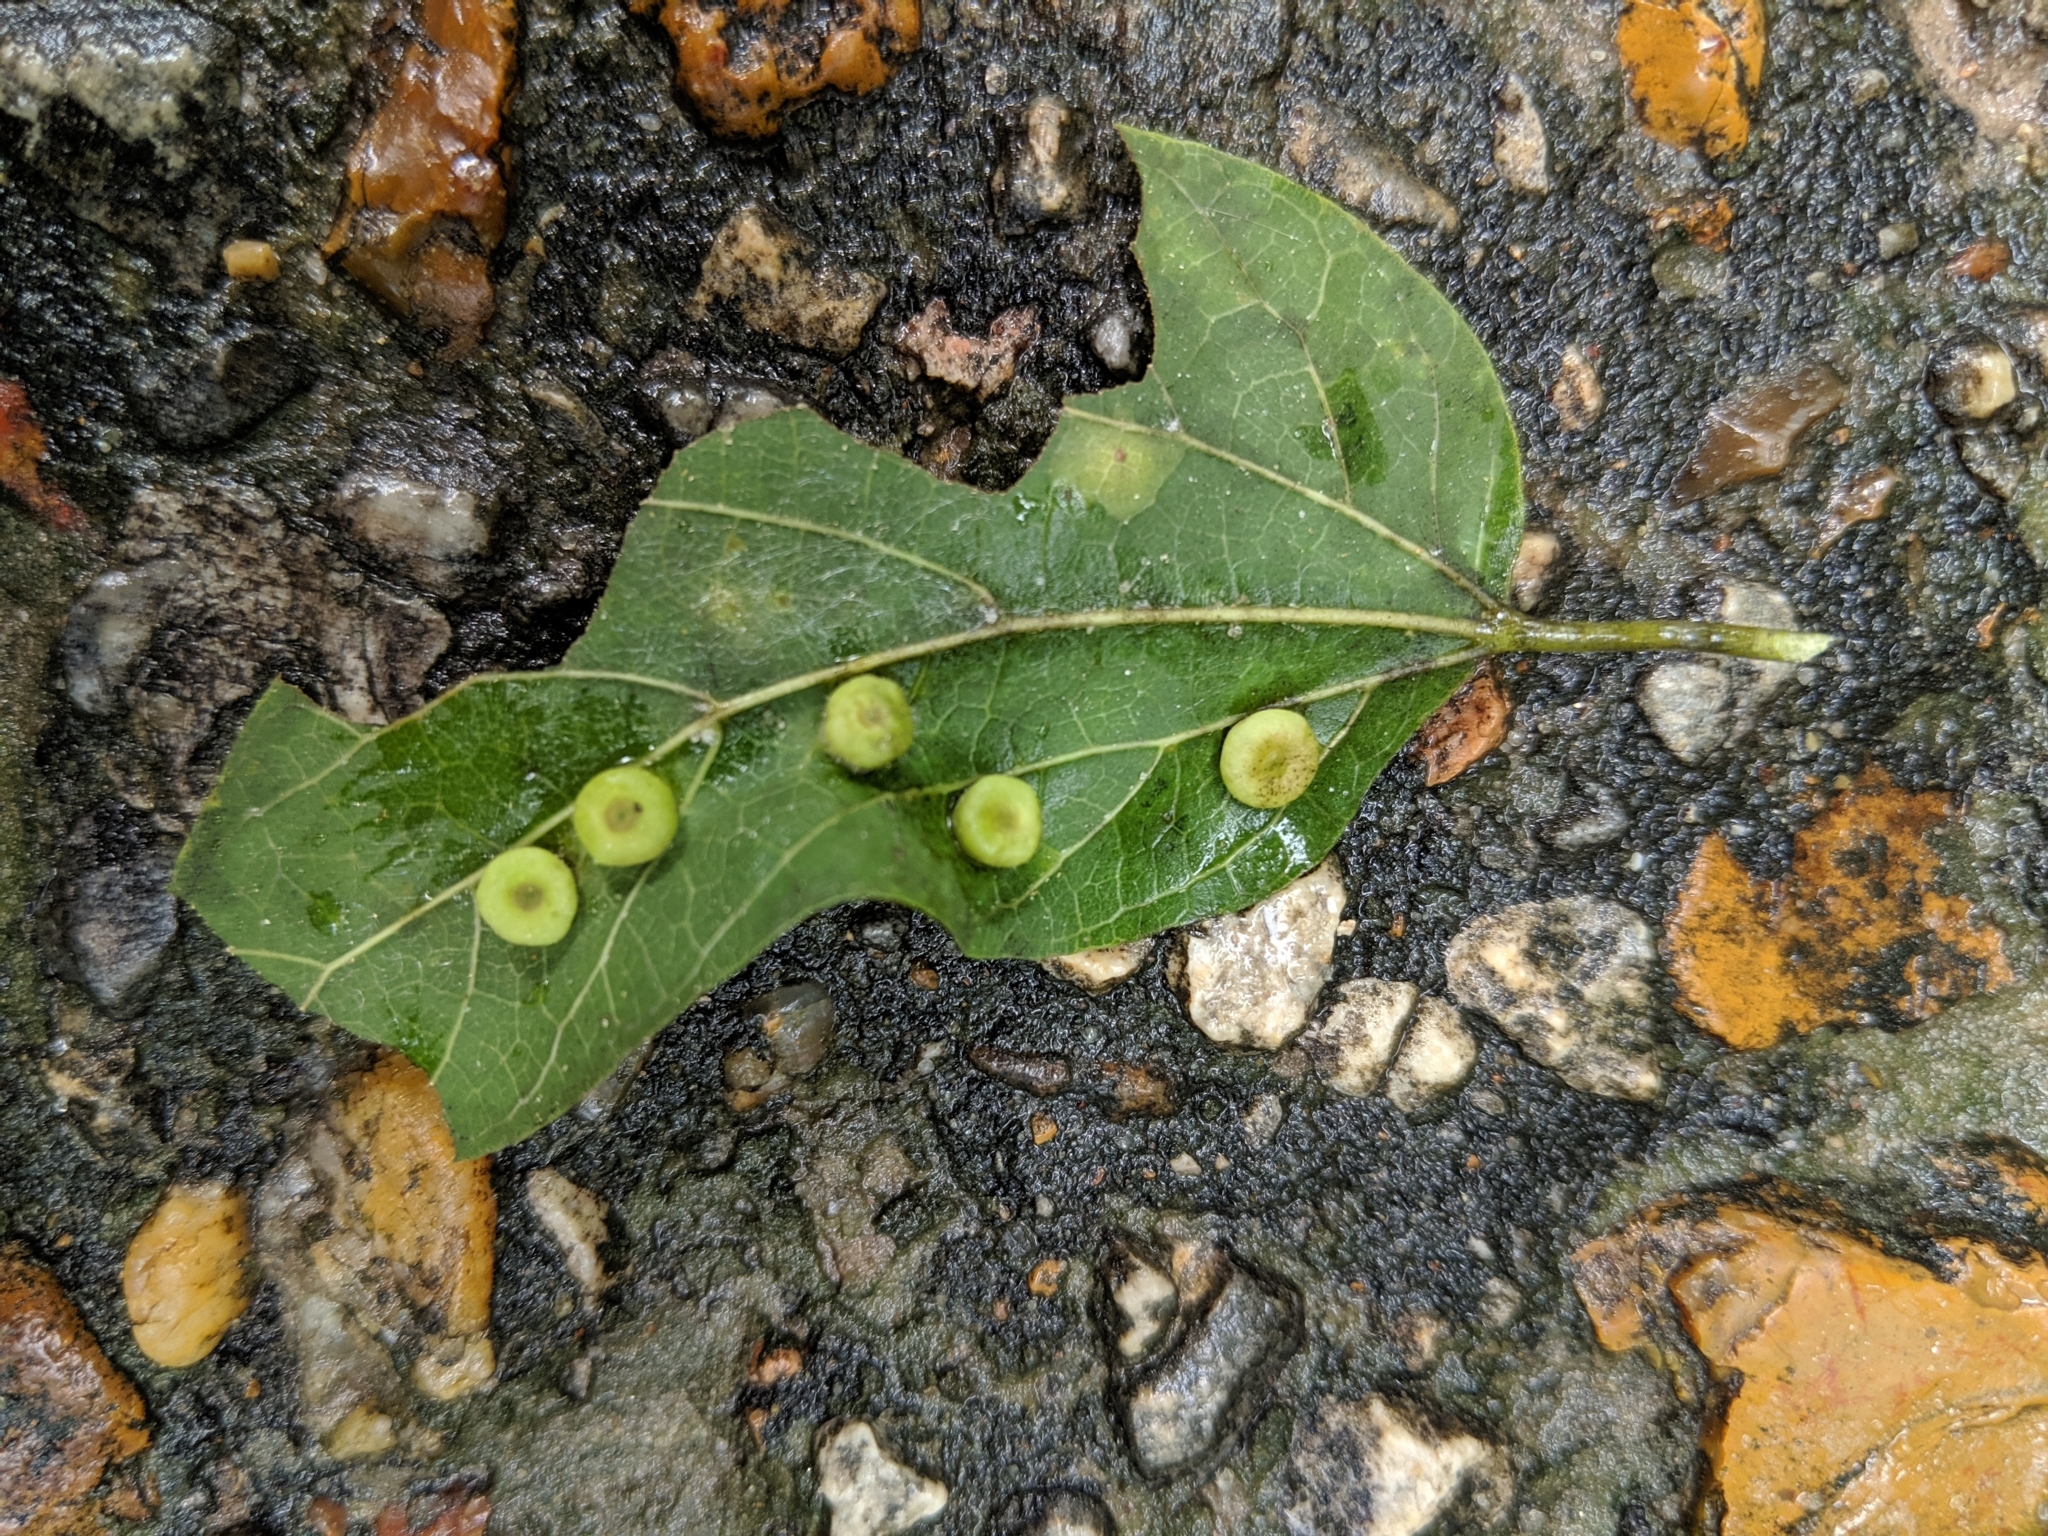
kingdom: Animalia
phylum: Arthropoda
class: Insecta
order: Hemiptera
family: Aphalaridae
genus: Pachypsylla
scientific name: Pachypsylla celtidismamma
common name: Hackberry nipplegall psyllid
